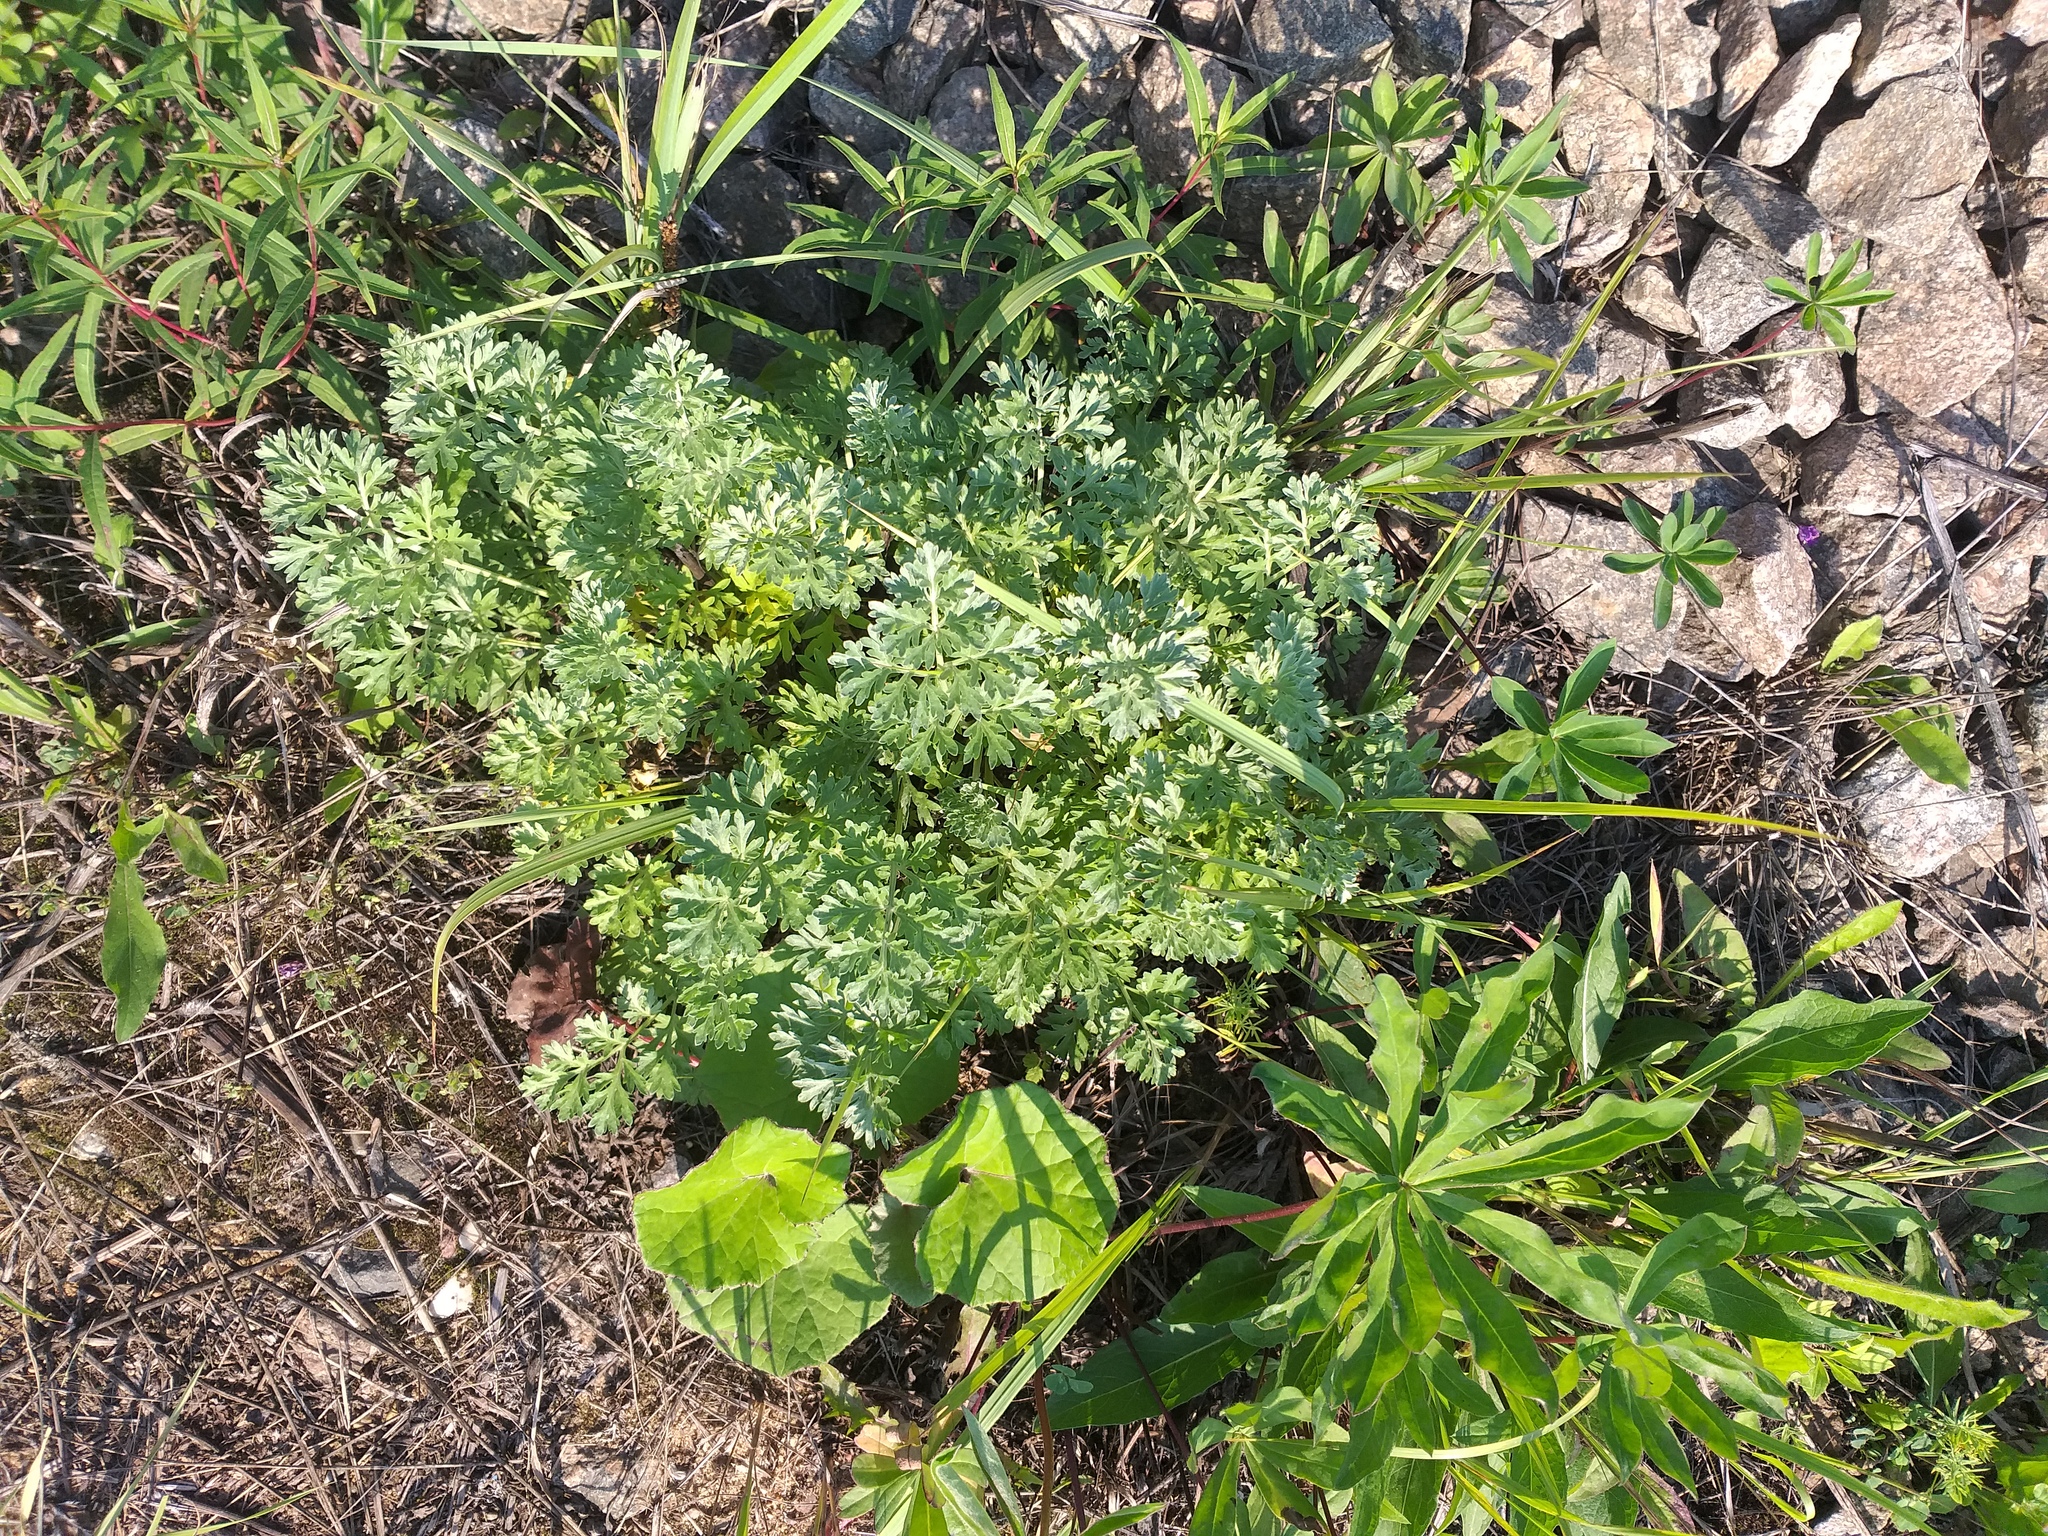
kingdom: Plantae
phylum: Tracheophyta
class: Magnoliopsida
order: Asterales
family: Asteraceae
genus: Artemisia
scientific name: Artemisia absinthium
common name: Wormwood
